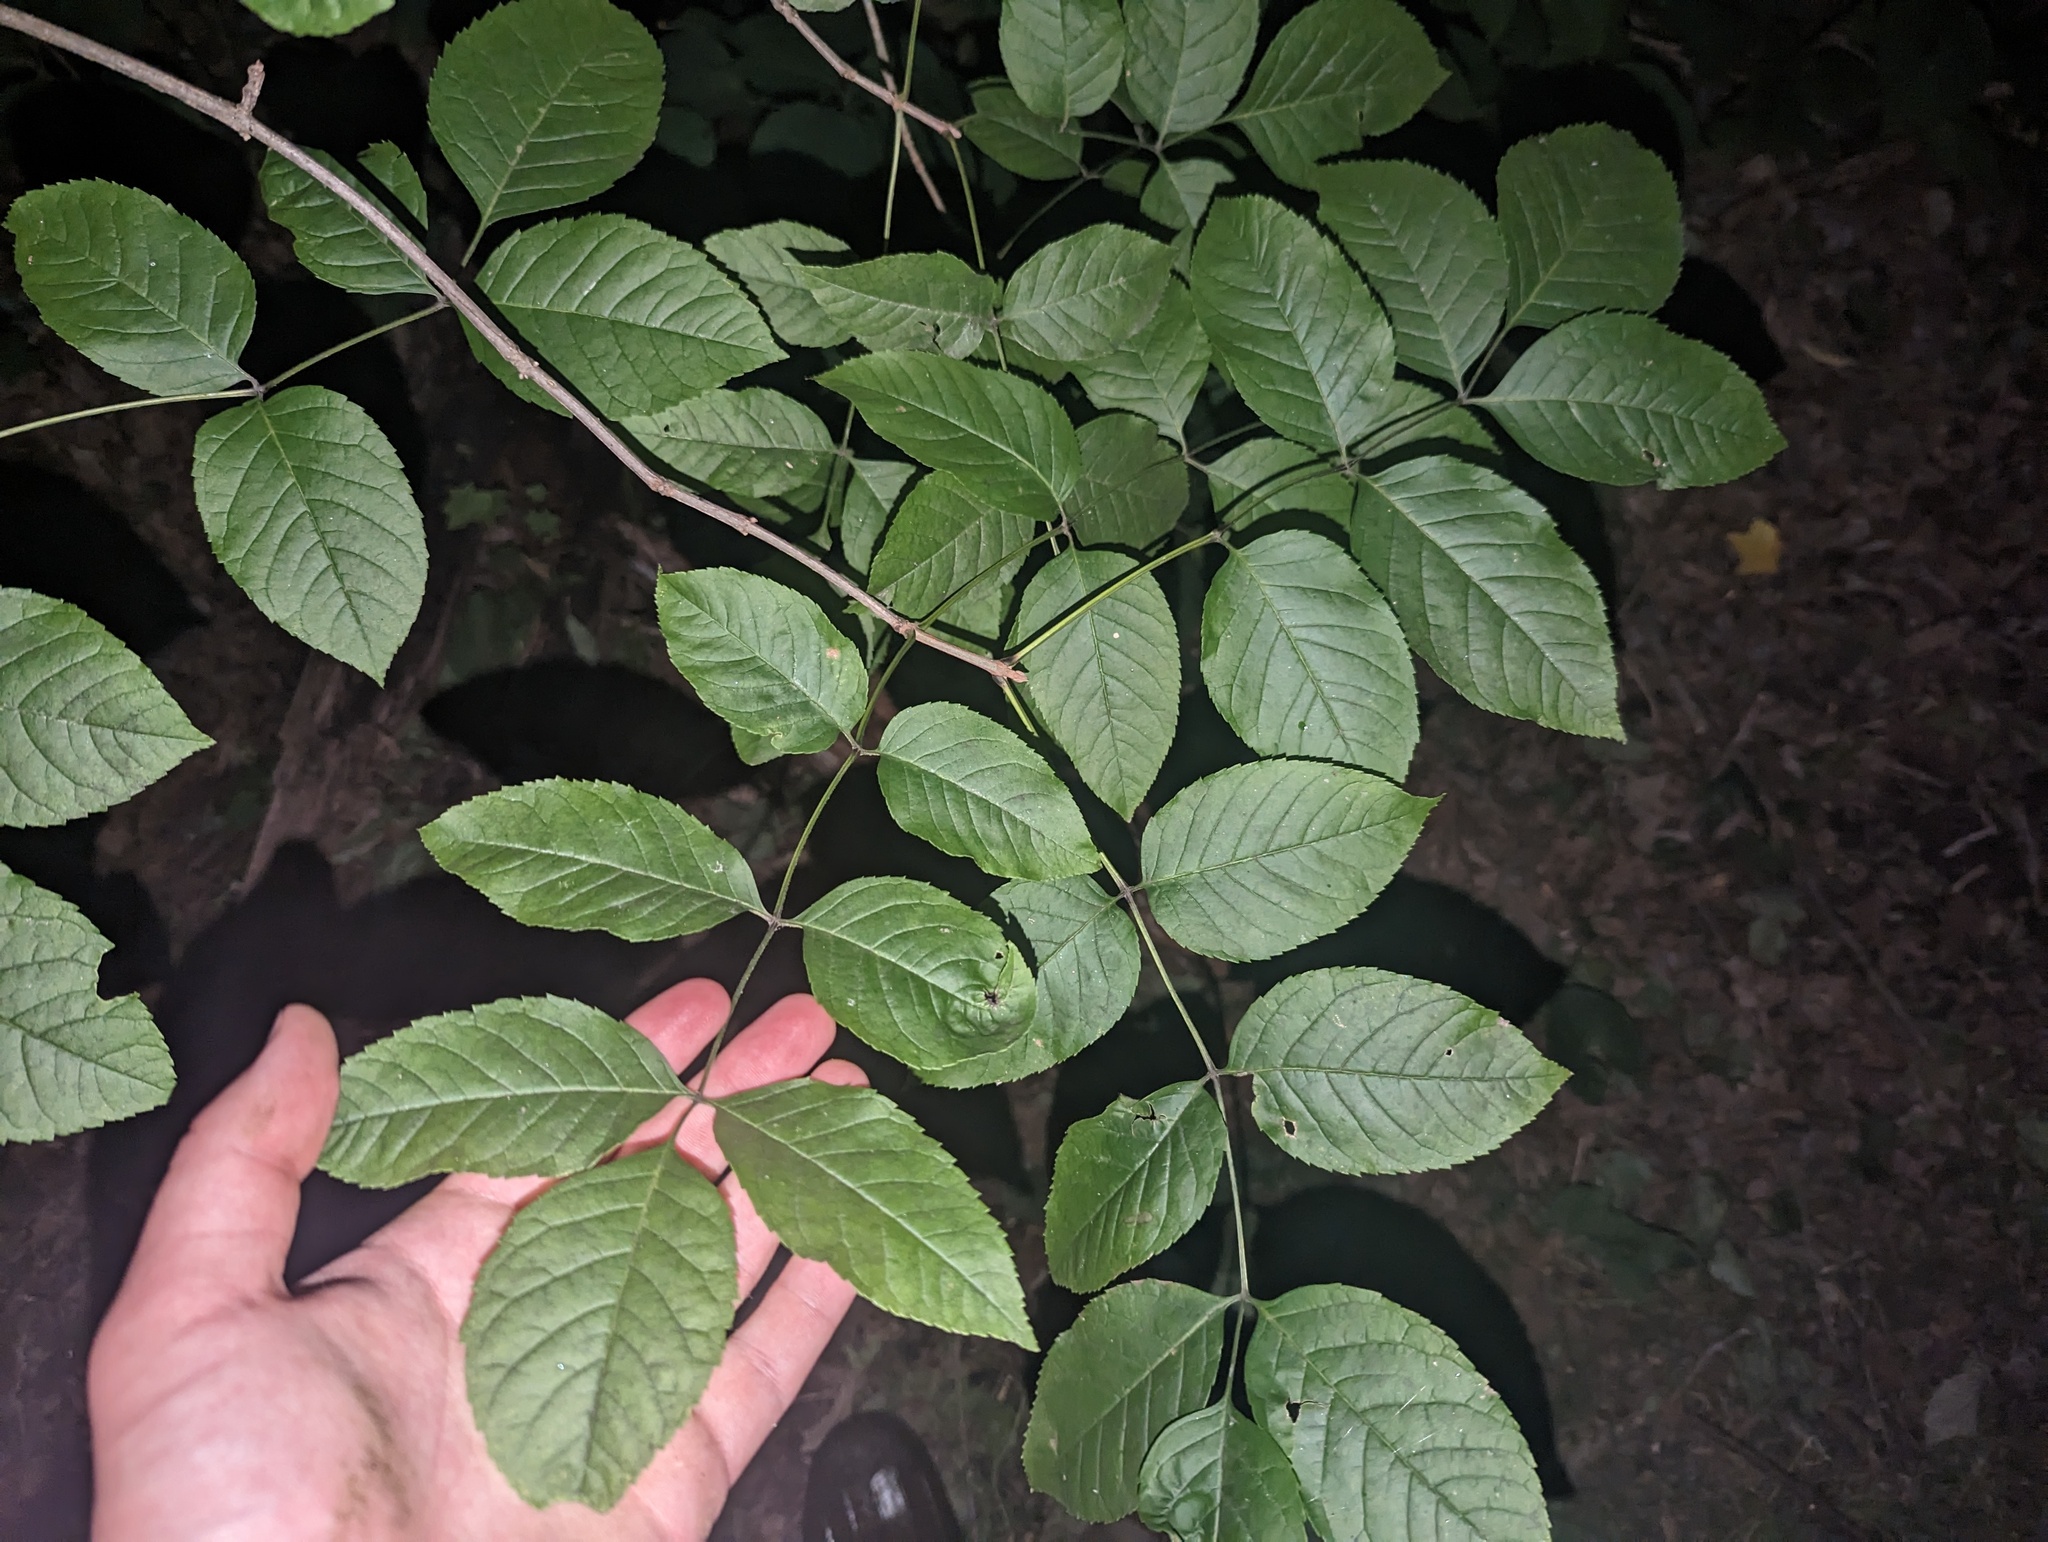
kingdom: Plantae
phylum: Tracheophyta
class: Magnoliopsida
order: Lamiales
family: Oleaceae
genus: Fraxinus
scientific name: Fraxinus quadrangulata
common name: Blue ash
